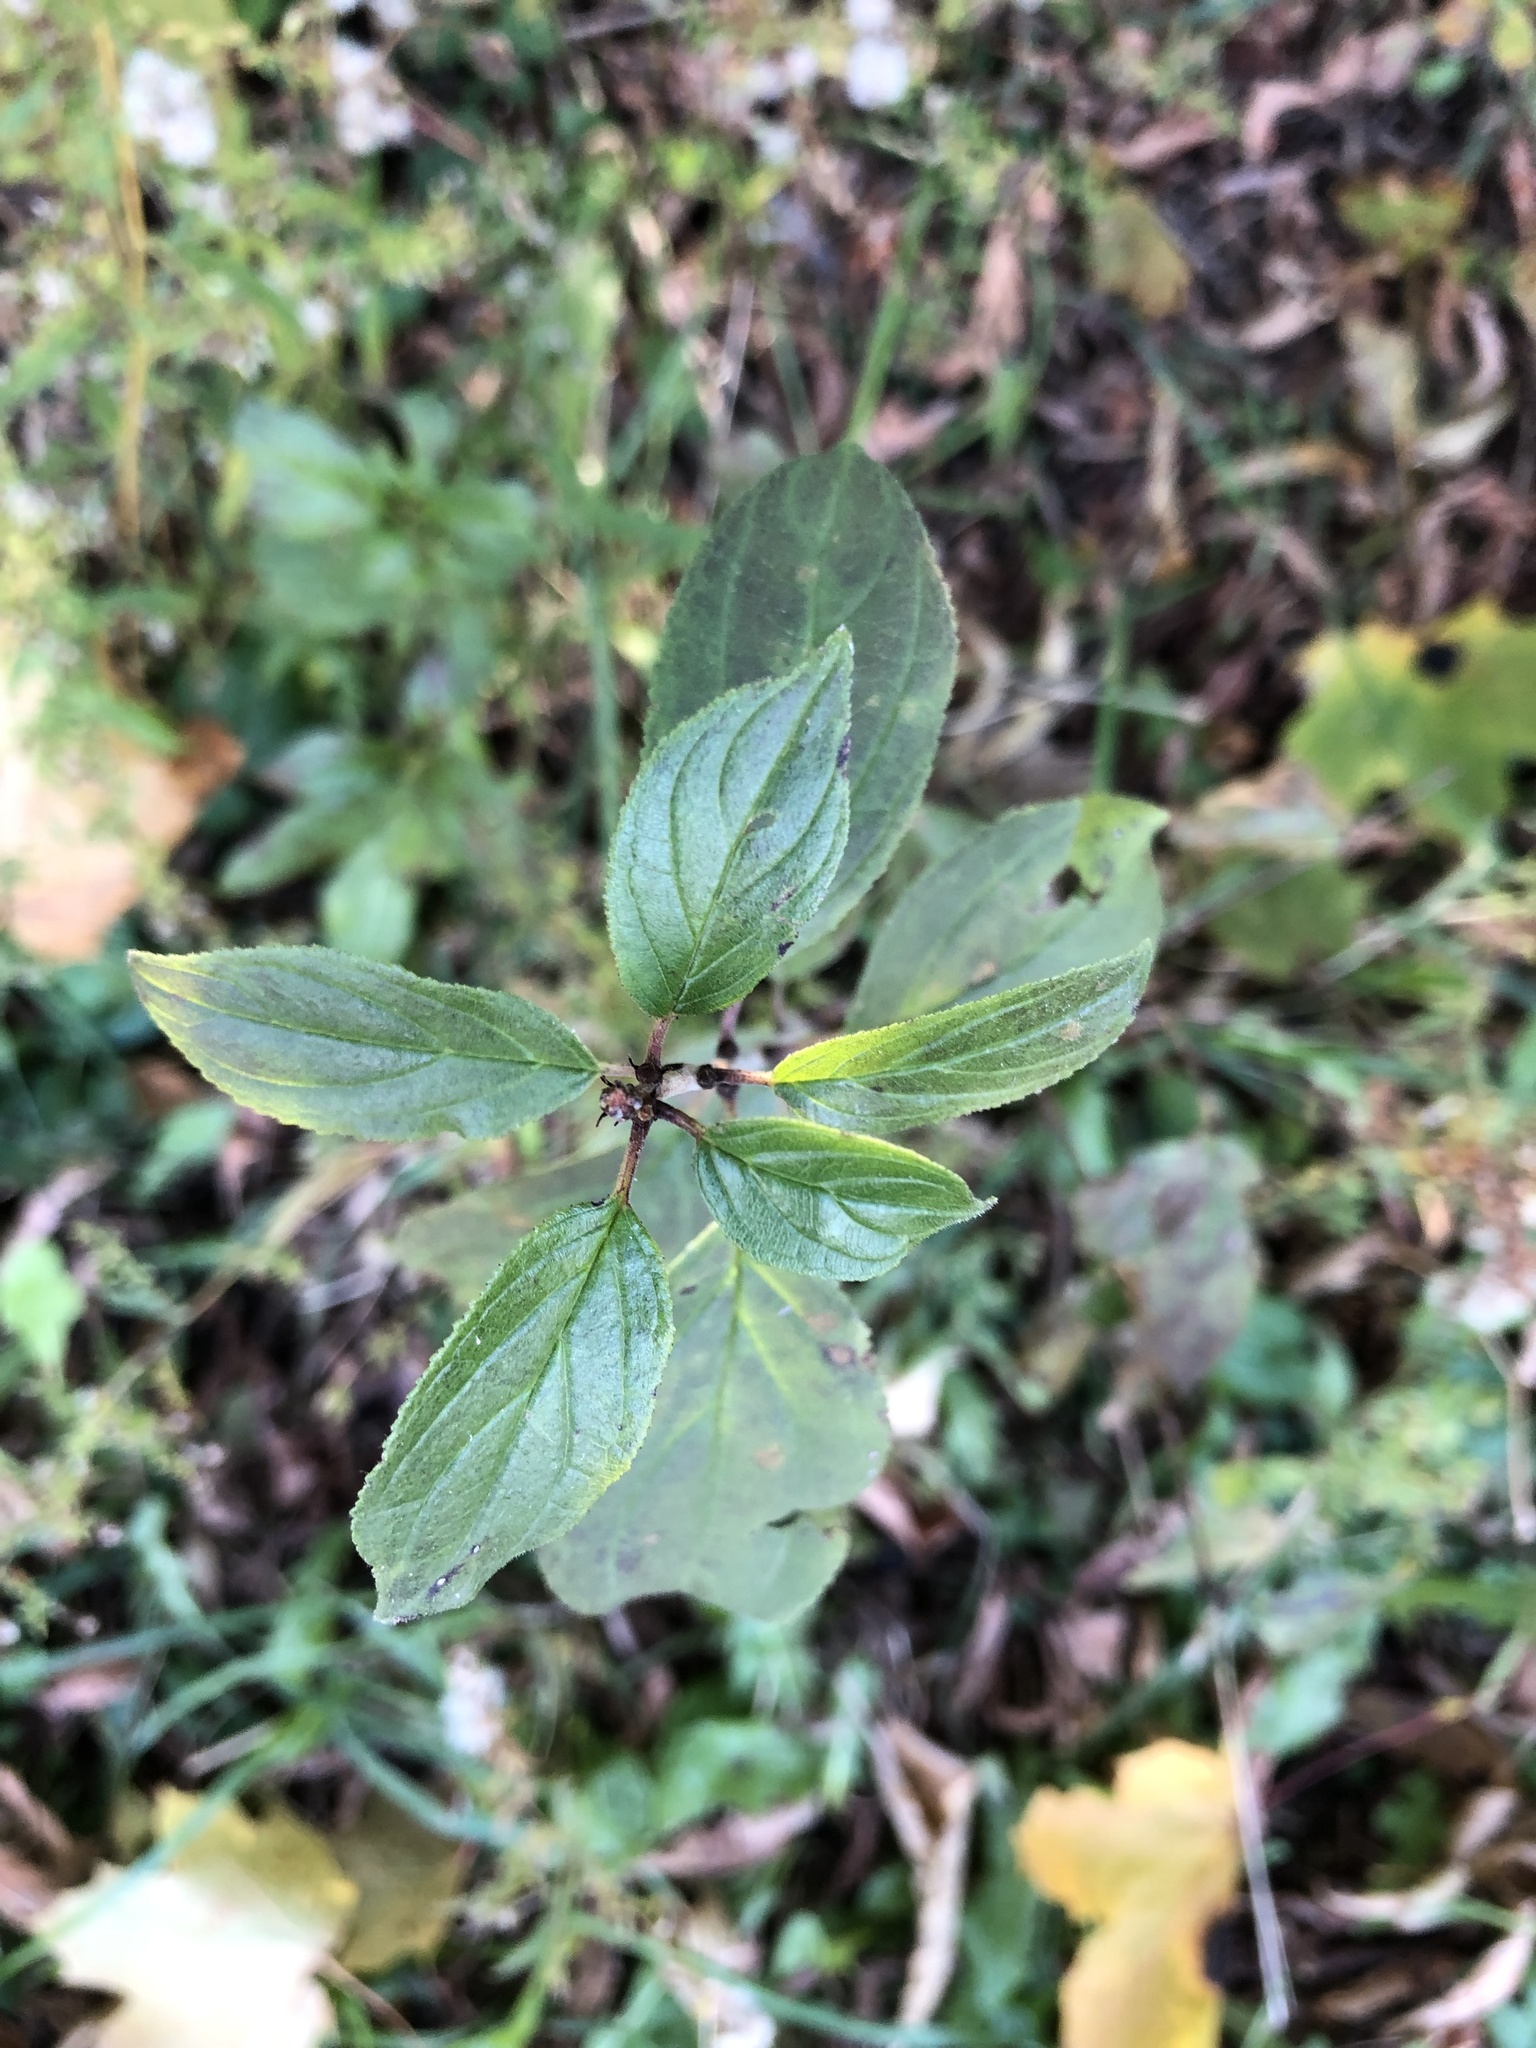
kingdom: Plantae
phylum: Tracheophyta
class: Magnoliopsida
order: Rosales
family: Rhamnaceae
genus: Rhamnus
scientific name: Rhamnus cathartica
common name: Common buckthorn
